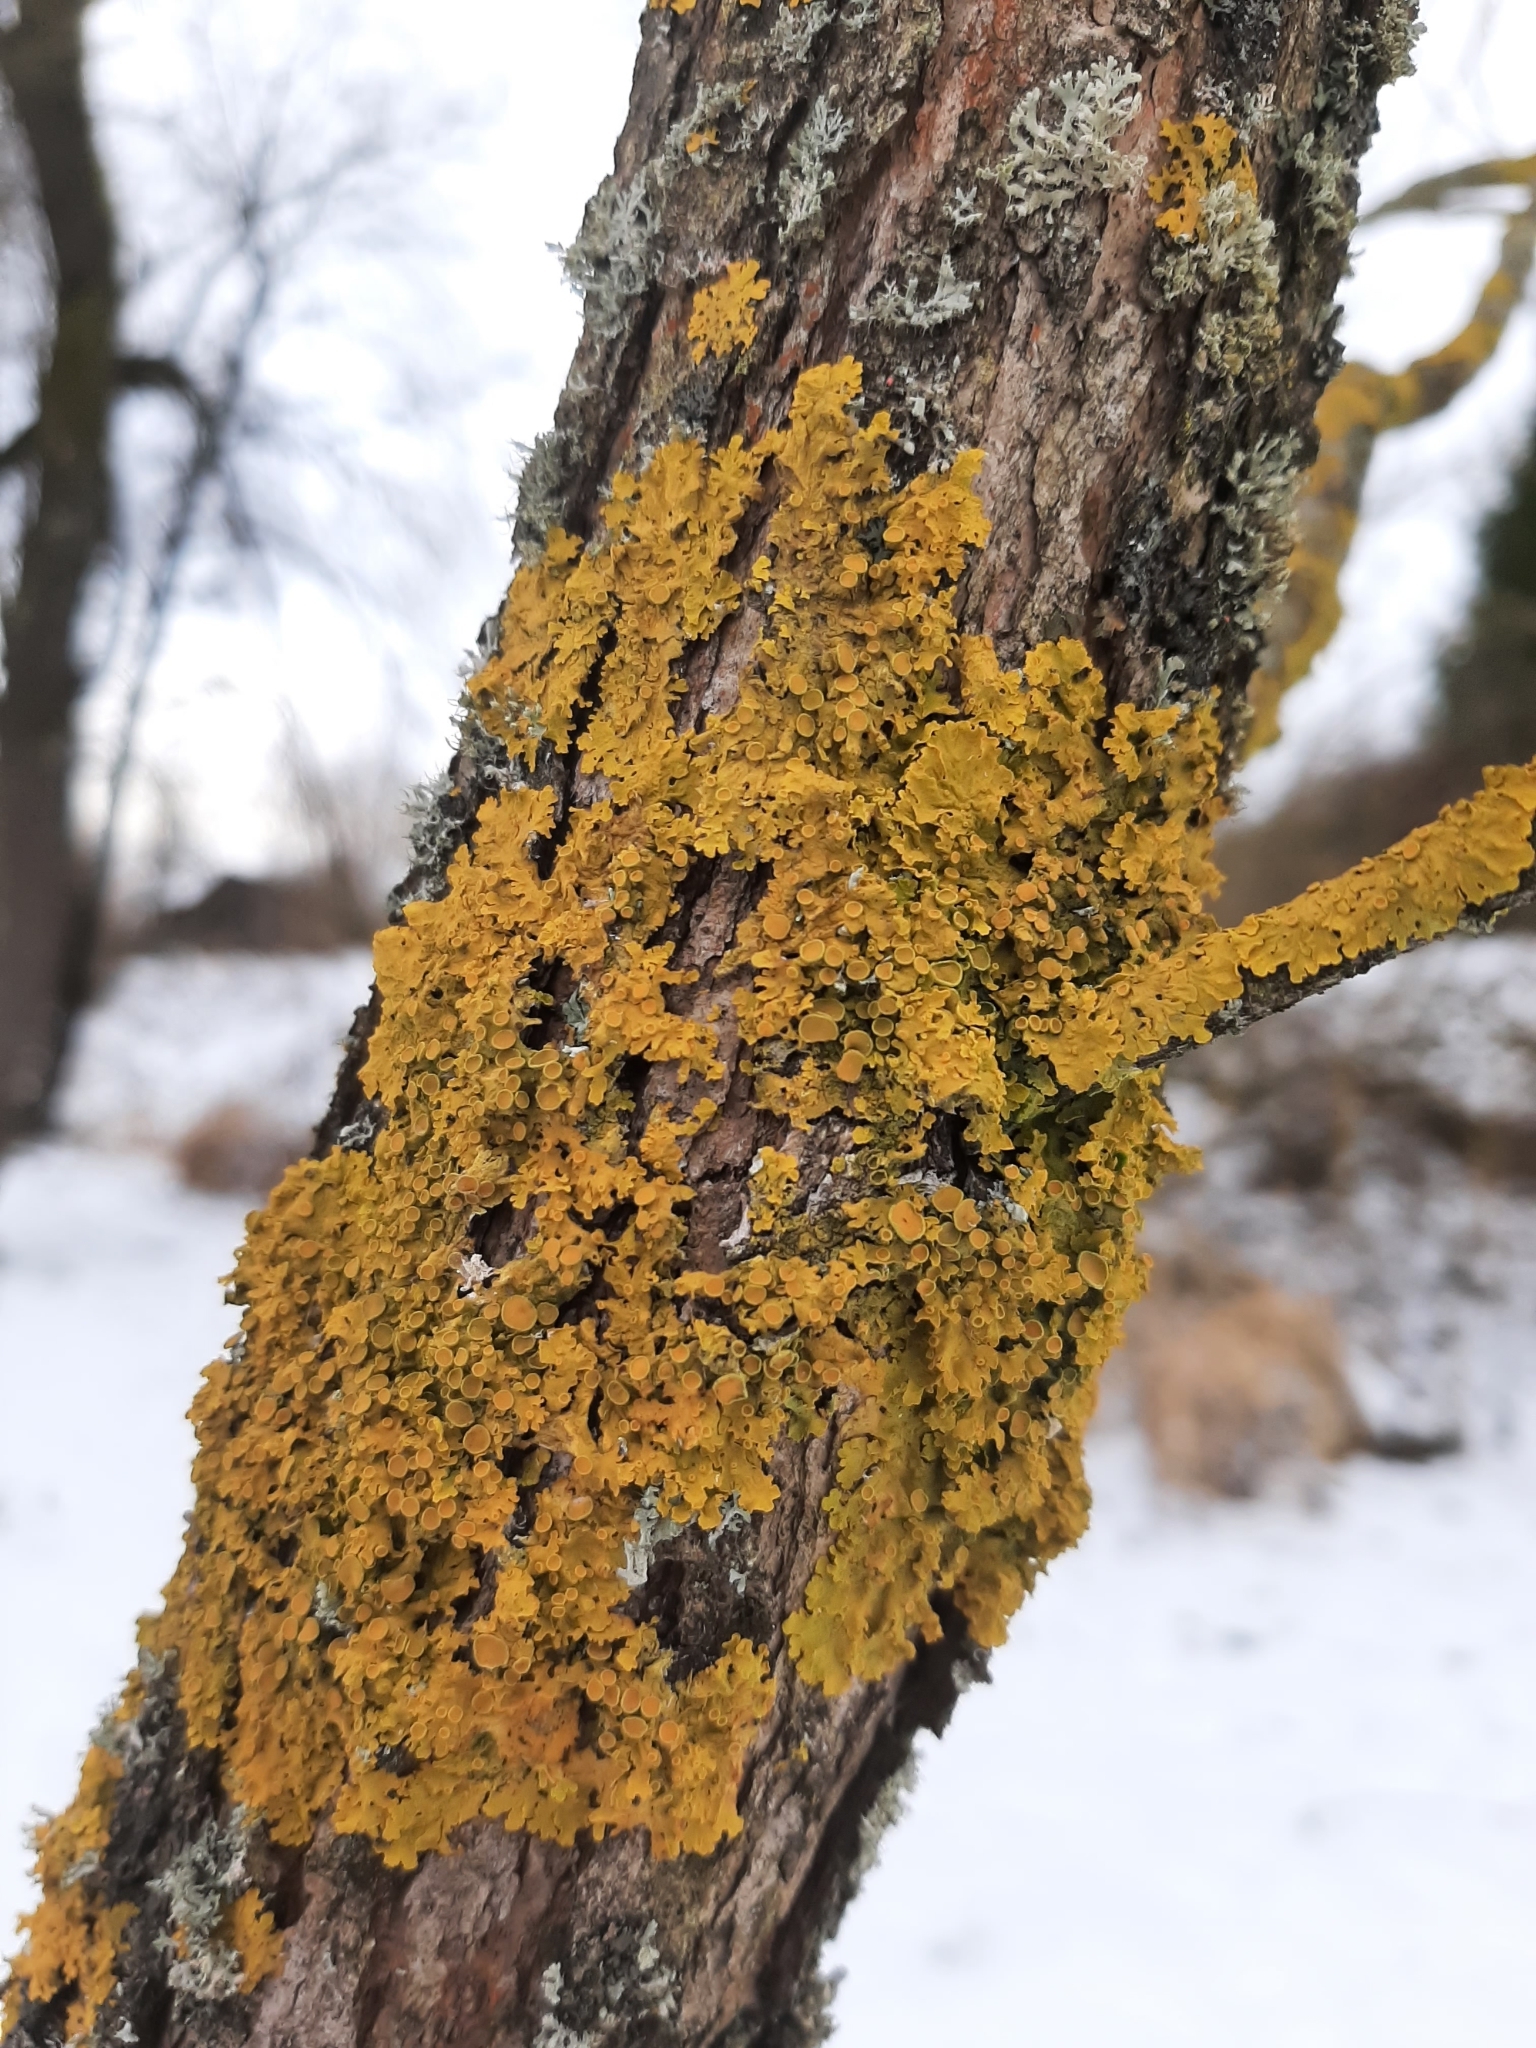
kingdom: Fungi
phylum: Ascomycota
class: Lecanoromycetes
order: Teloschistales
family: Teloschistaceae
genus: Xanthoria
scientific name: Xanthoria parietina
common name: Common orange lichen
